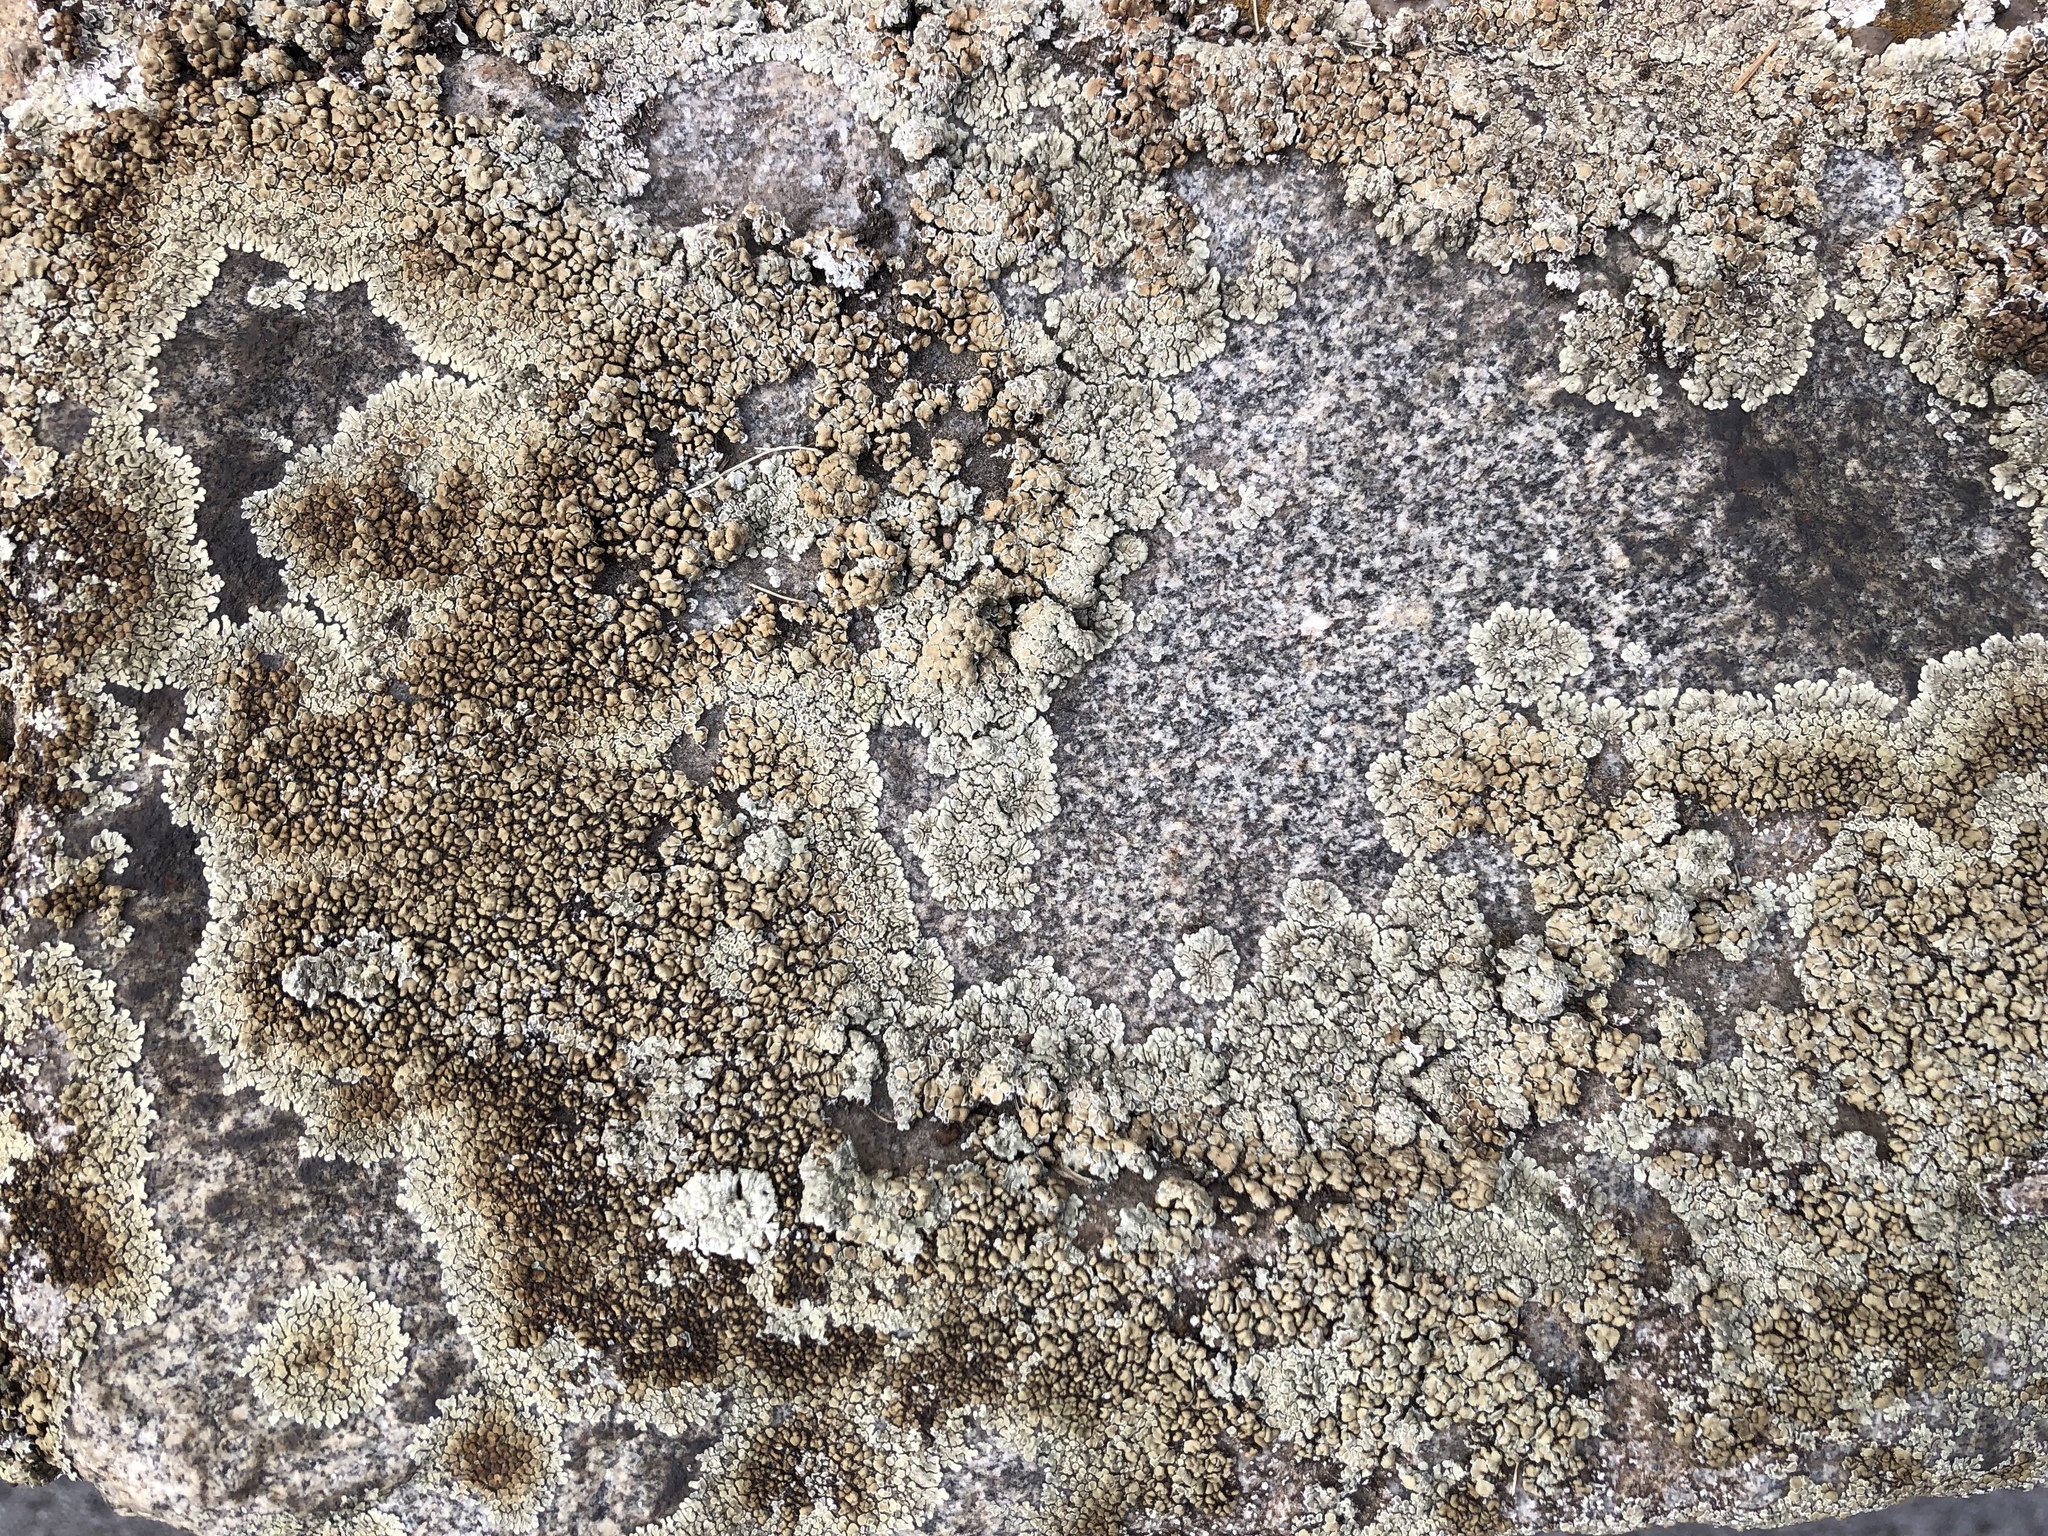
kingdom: Fungi
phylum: Ascomycota
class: Lecanoromycetes
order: Lecanorales
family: Lecanoraceae
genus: Protoparmeliopsis
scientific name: Protoparmeliopsis muralis
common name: Stonewall rim lichen
